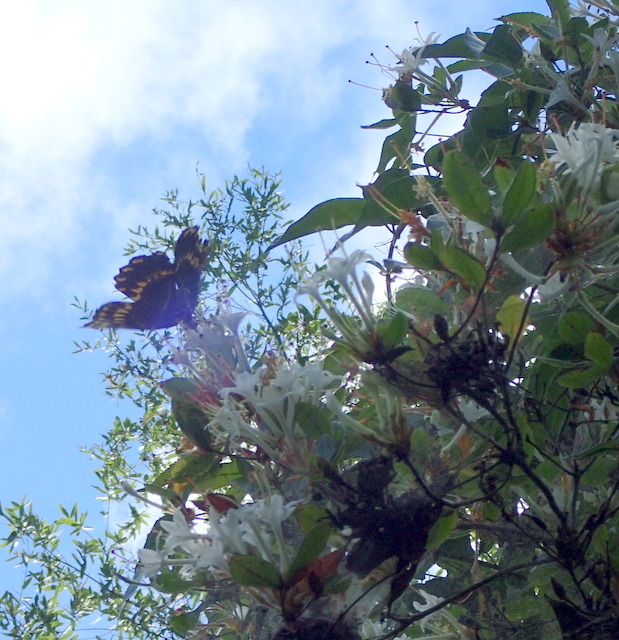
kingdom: Animalia
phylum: Arthropoda
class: Insecta
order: Lepidoptera
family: Papilionidae
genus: Papilio
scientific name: Papilio palamedes
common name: Palamedes swallowtail
